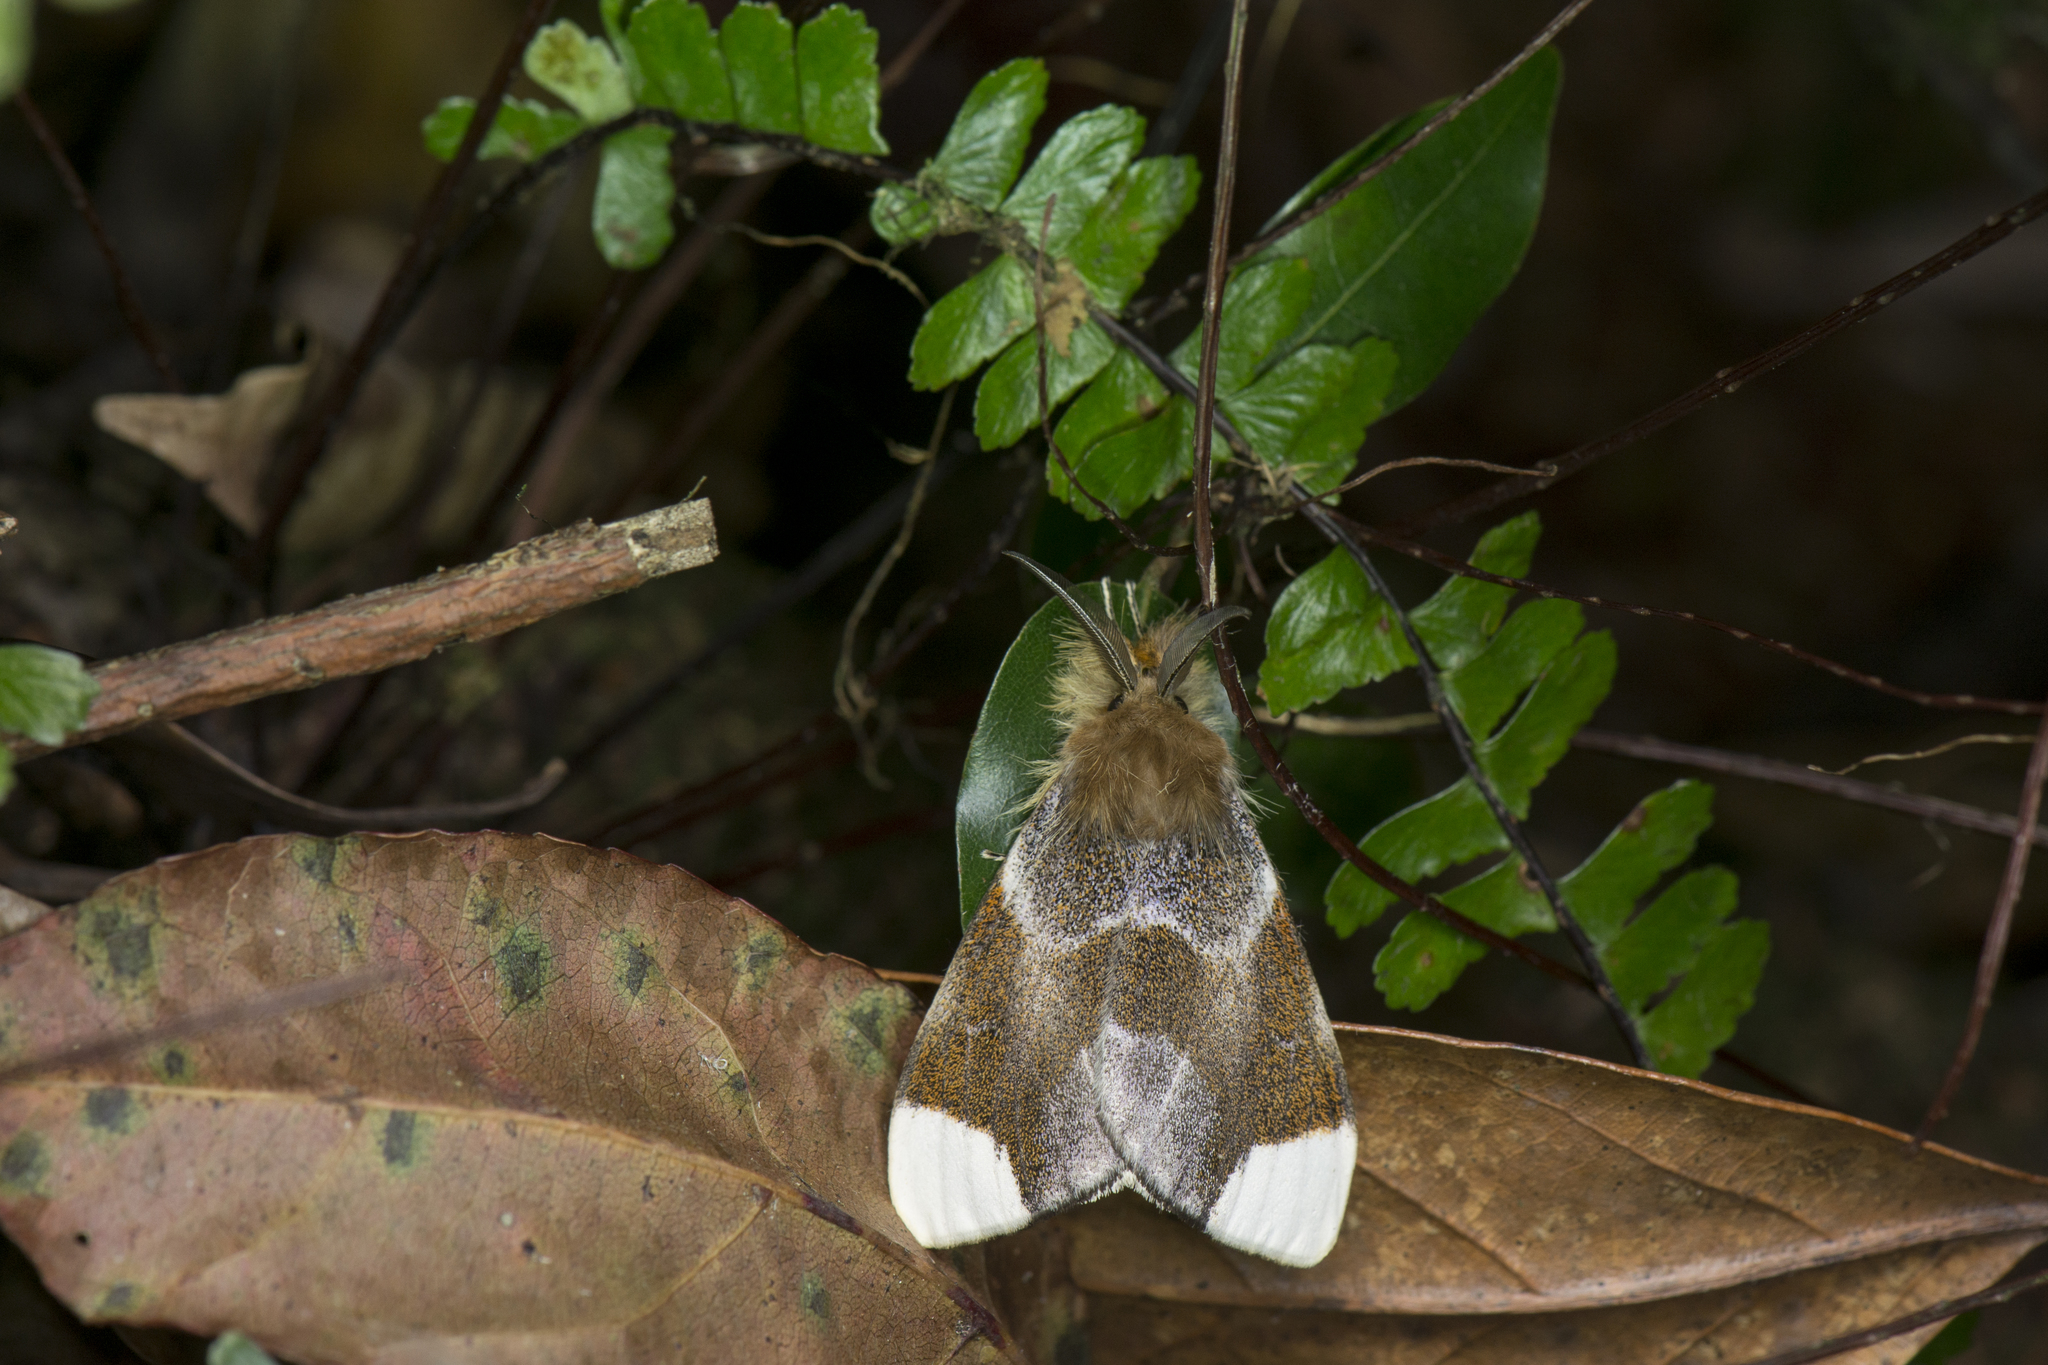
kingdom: Animalia
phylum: Arthropoda
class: Insecta
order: Lepidoptera
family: Erebidae
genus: Pida
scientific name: Pida postalba
